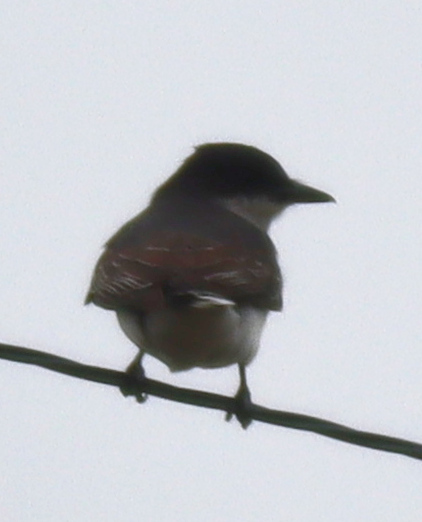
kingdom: Animalia
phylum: Chordata
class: Aves
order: Passeriformes
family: Tyrannidae
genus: Tyrannus
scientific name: Tyrannus tyrannus
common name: Eastern kingbird
